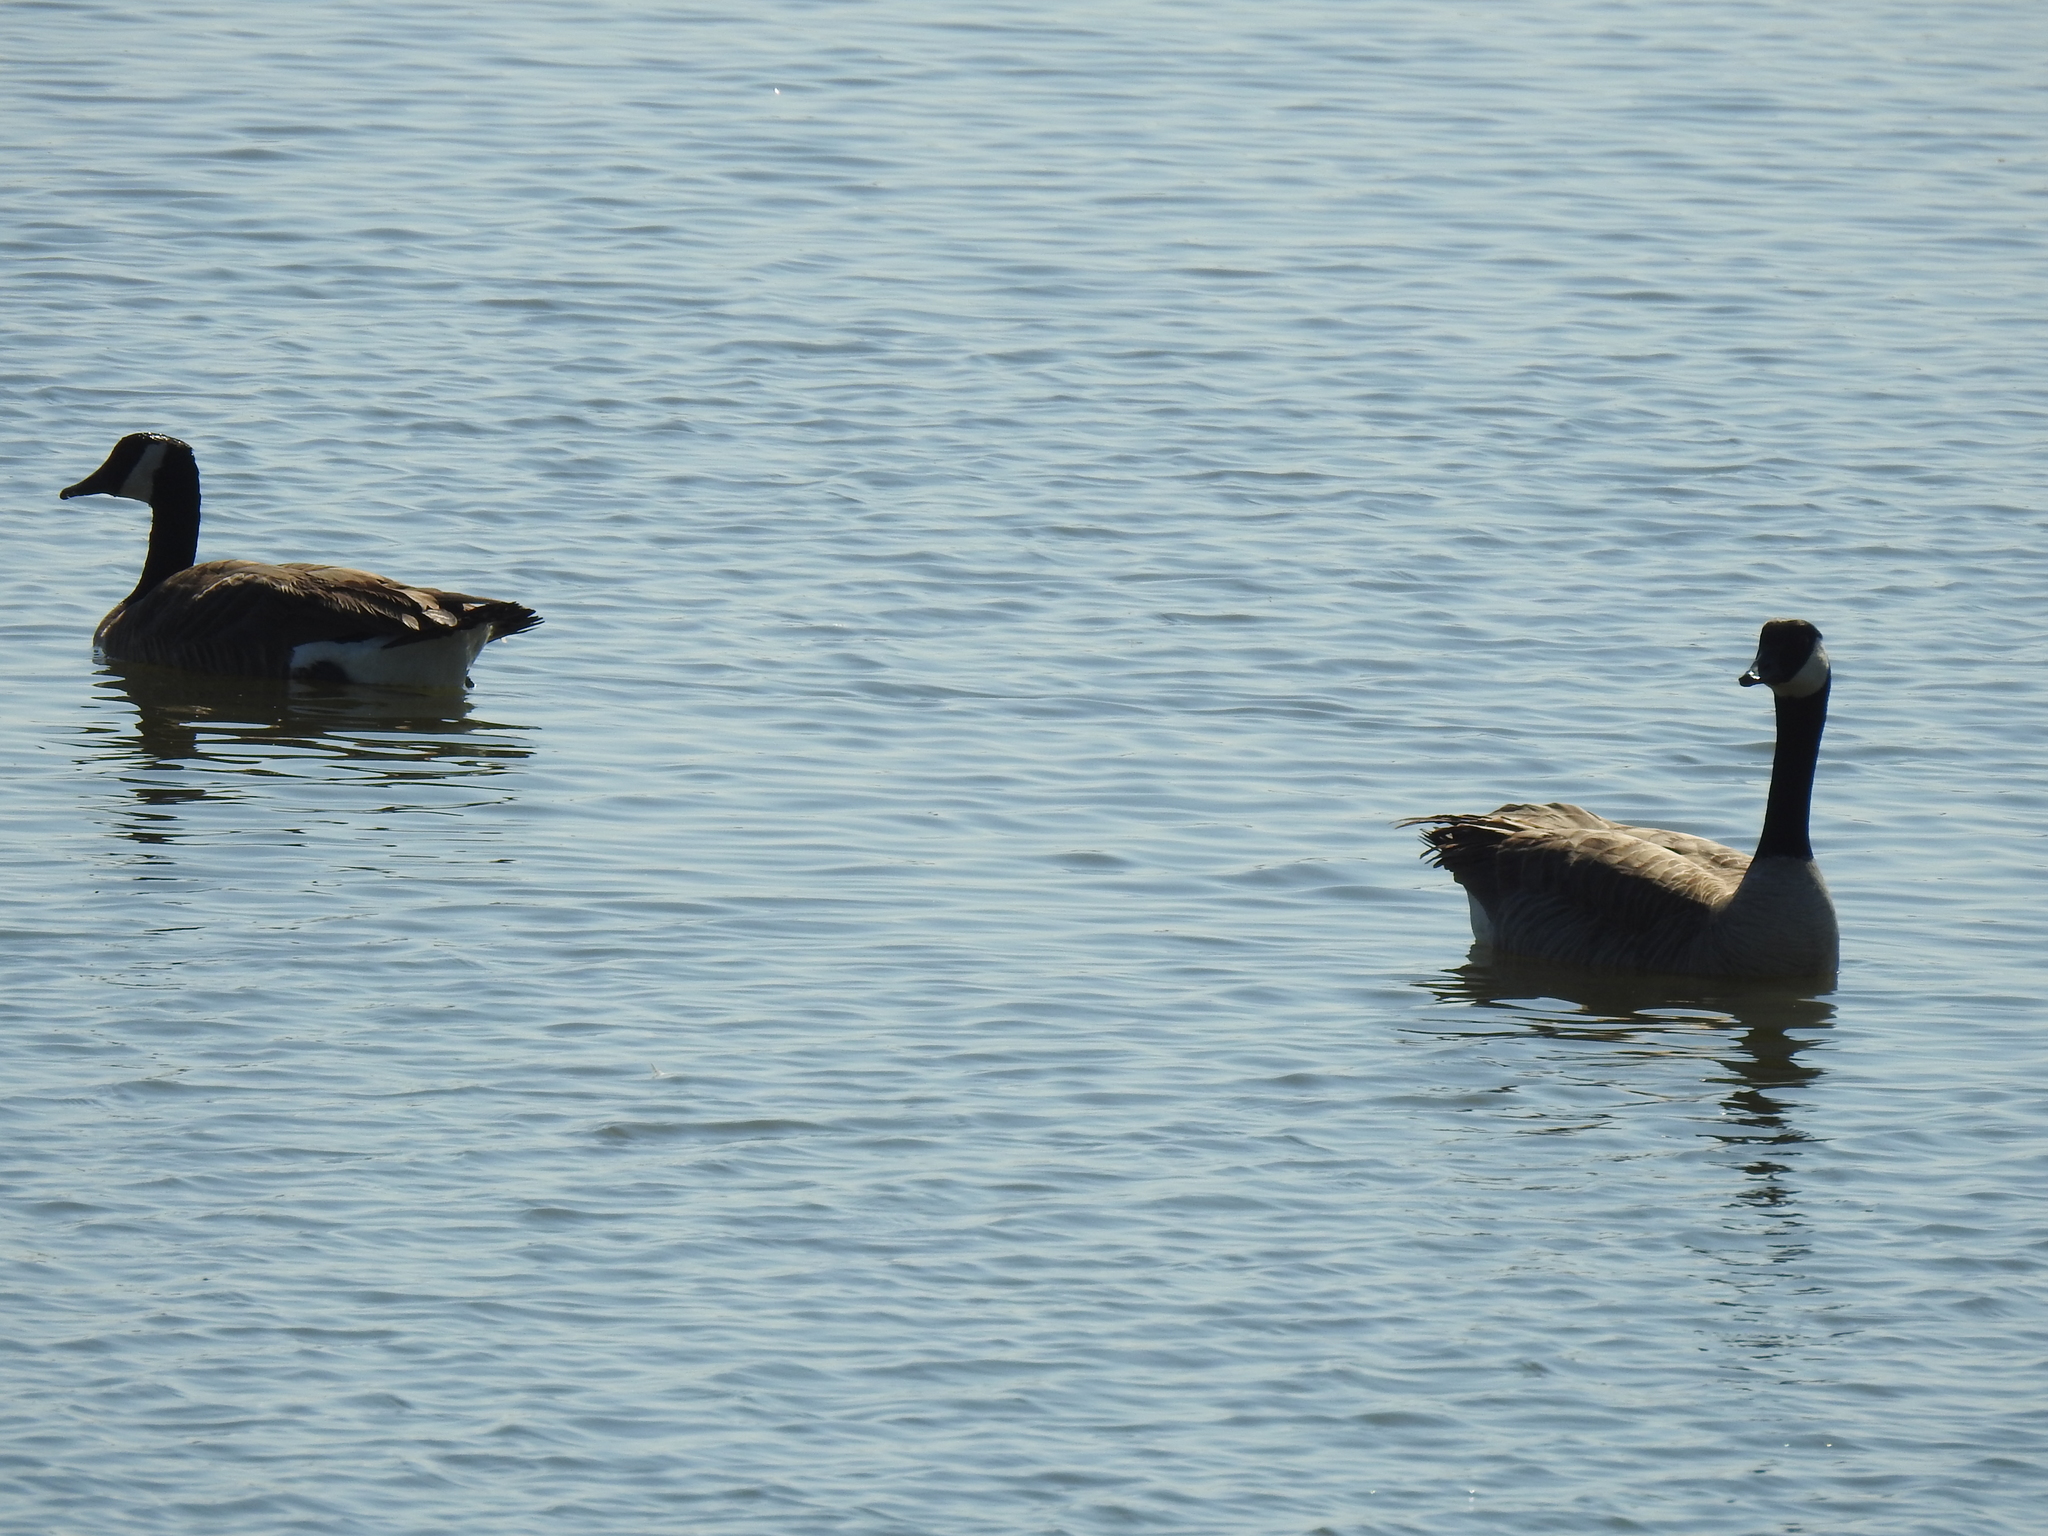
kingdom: Animalia
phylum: Chordata
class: Aves
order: Anseriformes
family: Anatidae
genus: Branta
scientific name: Branta canadensis
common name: Canada goose
